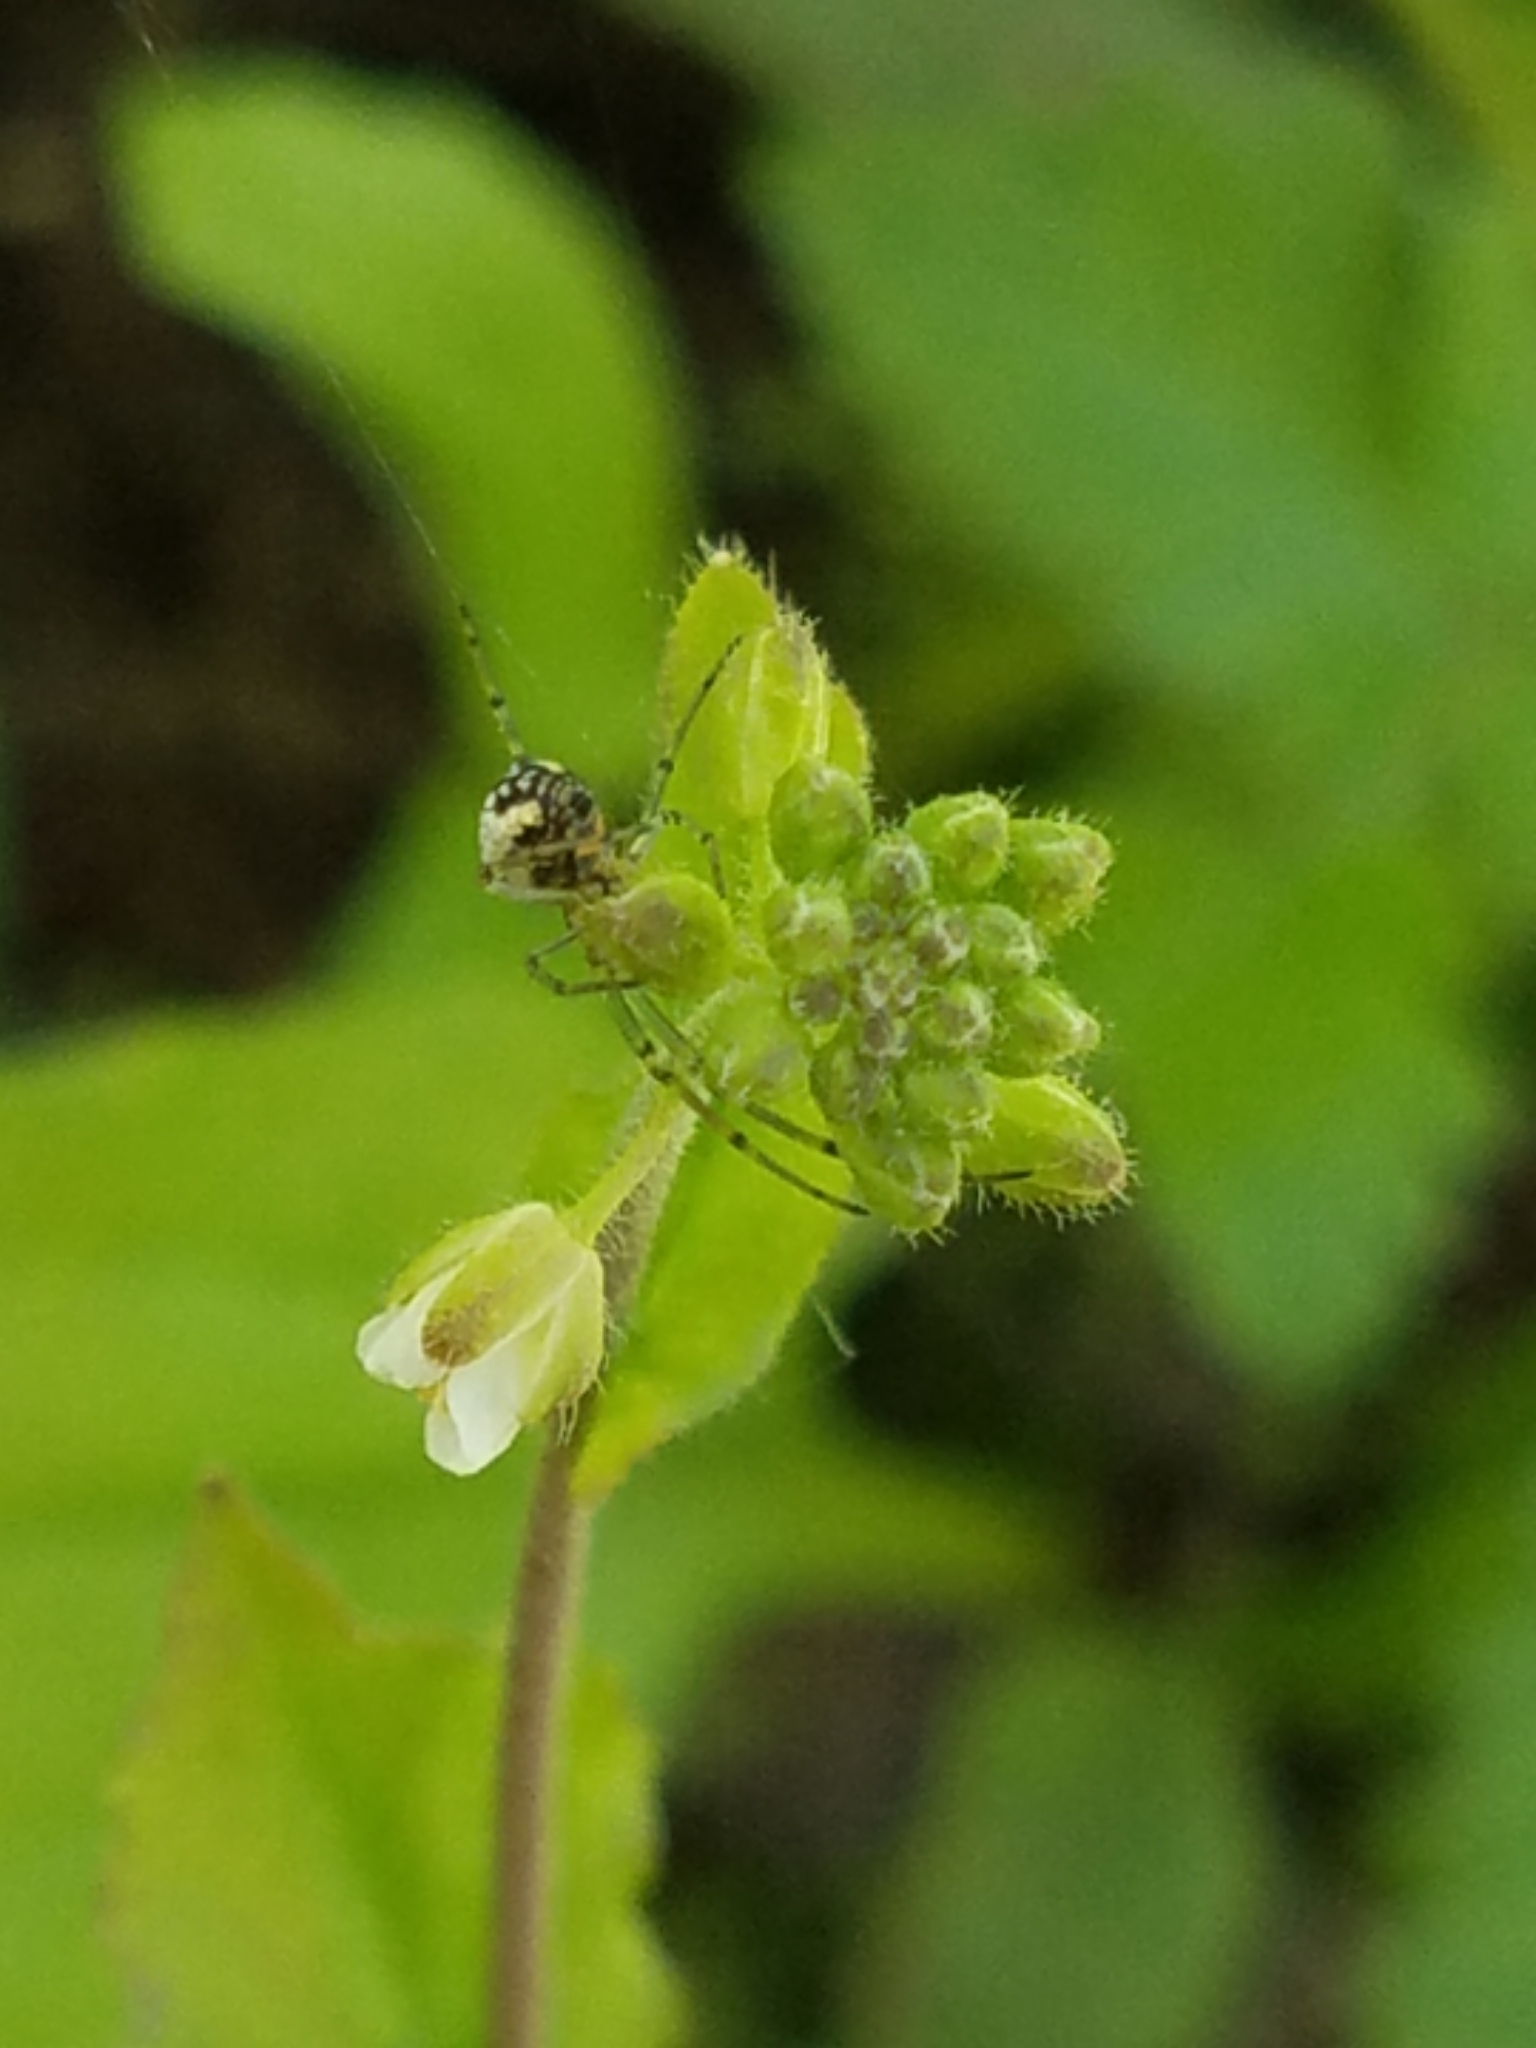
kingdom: Plantae
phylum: Tracheophyta
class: Magnoliopsida
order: Brassicales
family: Brassicaceae
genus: Borodinia
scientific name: Borodinia dentata
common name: Short's rockcress
